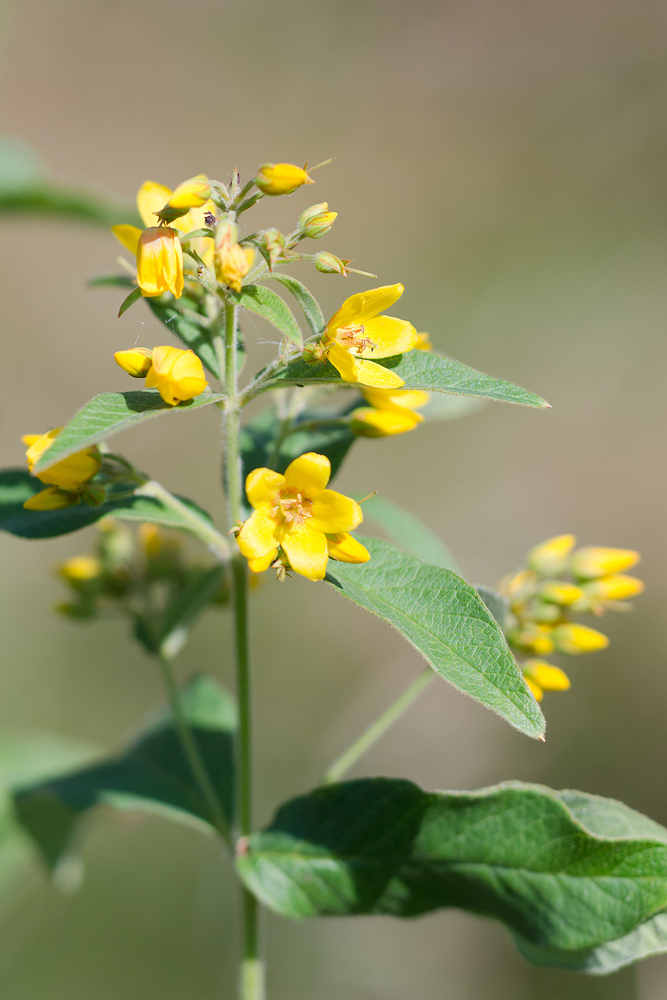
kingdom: Plantae
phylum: Tracheophyta
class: Magnoliopsida
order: Ericales
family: Primulaceae
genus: Lysimachia
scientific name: Lysimachia vulgaris
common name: Yellow loosestrife
